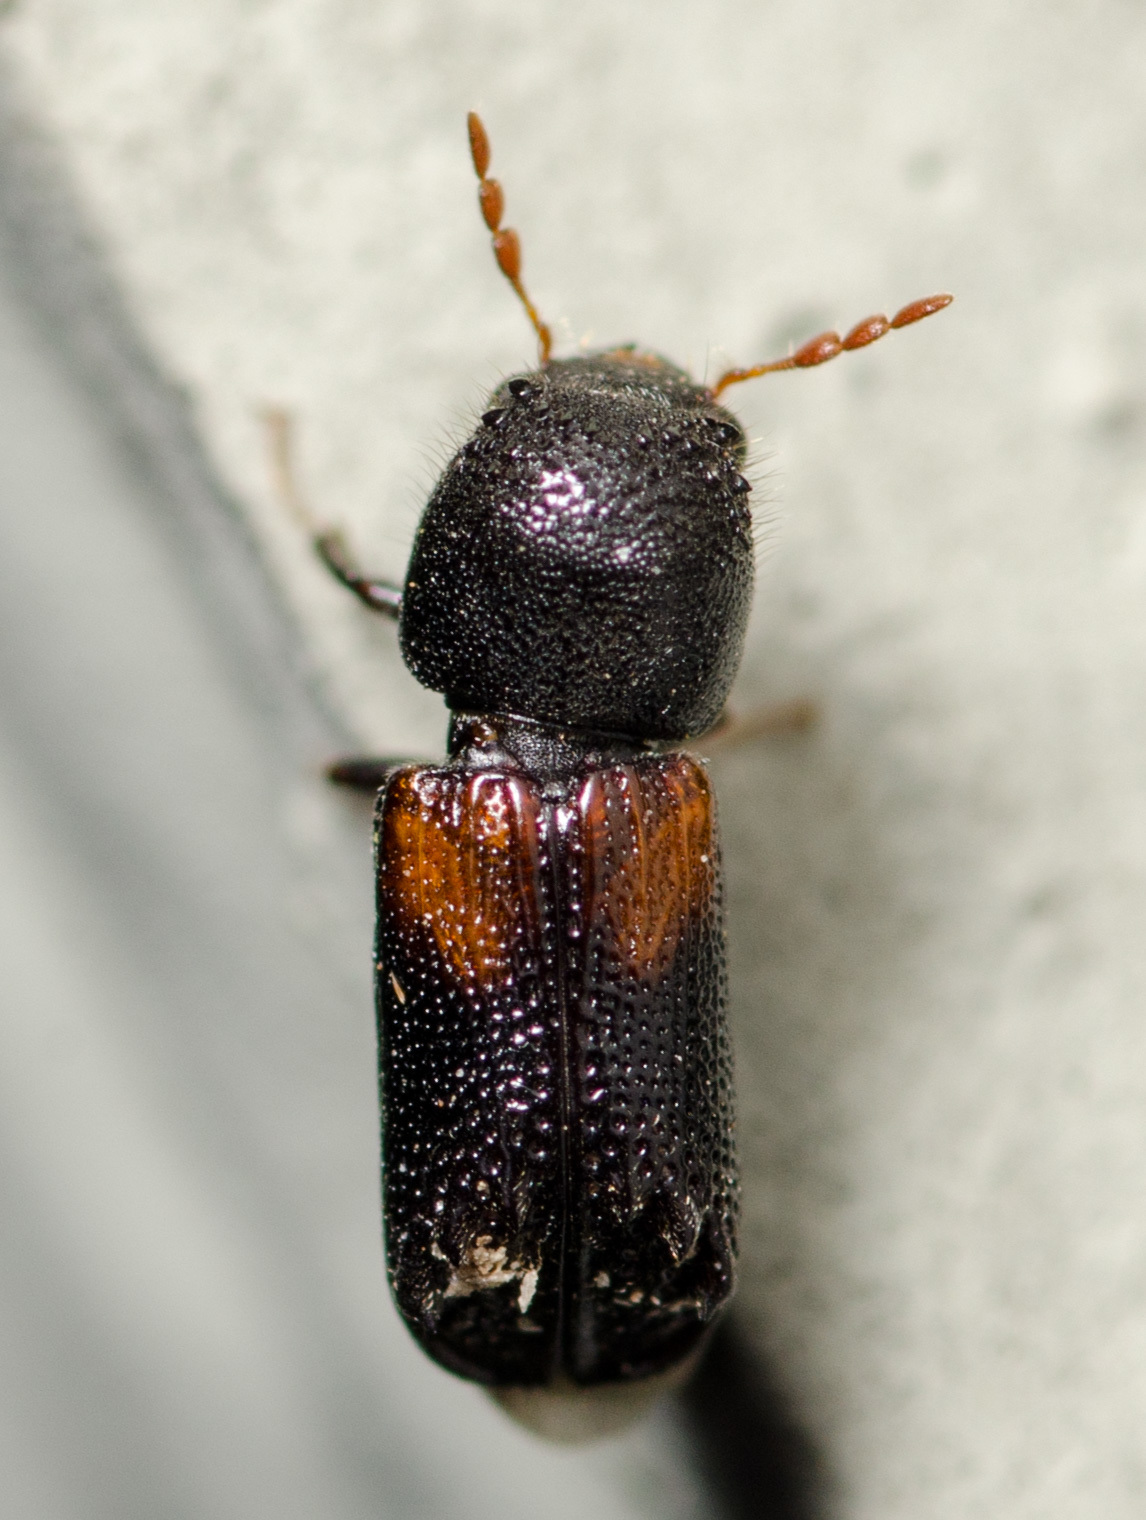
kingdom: Animalia
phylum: Arthropoda
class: Insecta
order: Coleoptera
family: Bostrichidae
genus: Xylobiops
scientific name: Xylobiops basilaris
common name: Red-shouldered bostrichid
